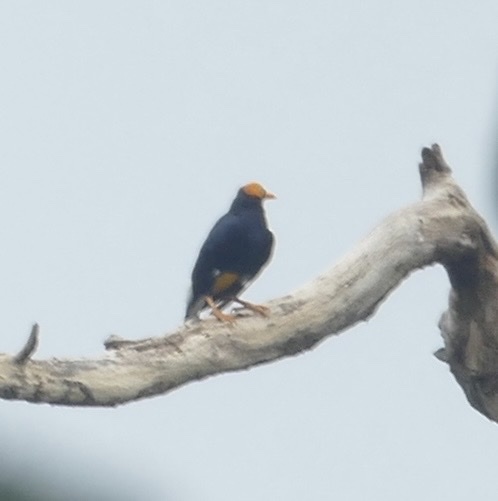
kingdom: Animalia
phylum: Chordata
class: Aves
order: Passeriformes
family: Sturnidae
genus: Mino
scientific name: Mino dumontii
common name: Yellow-faced myna
